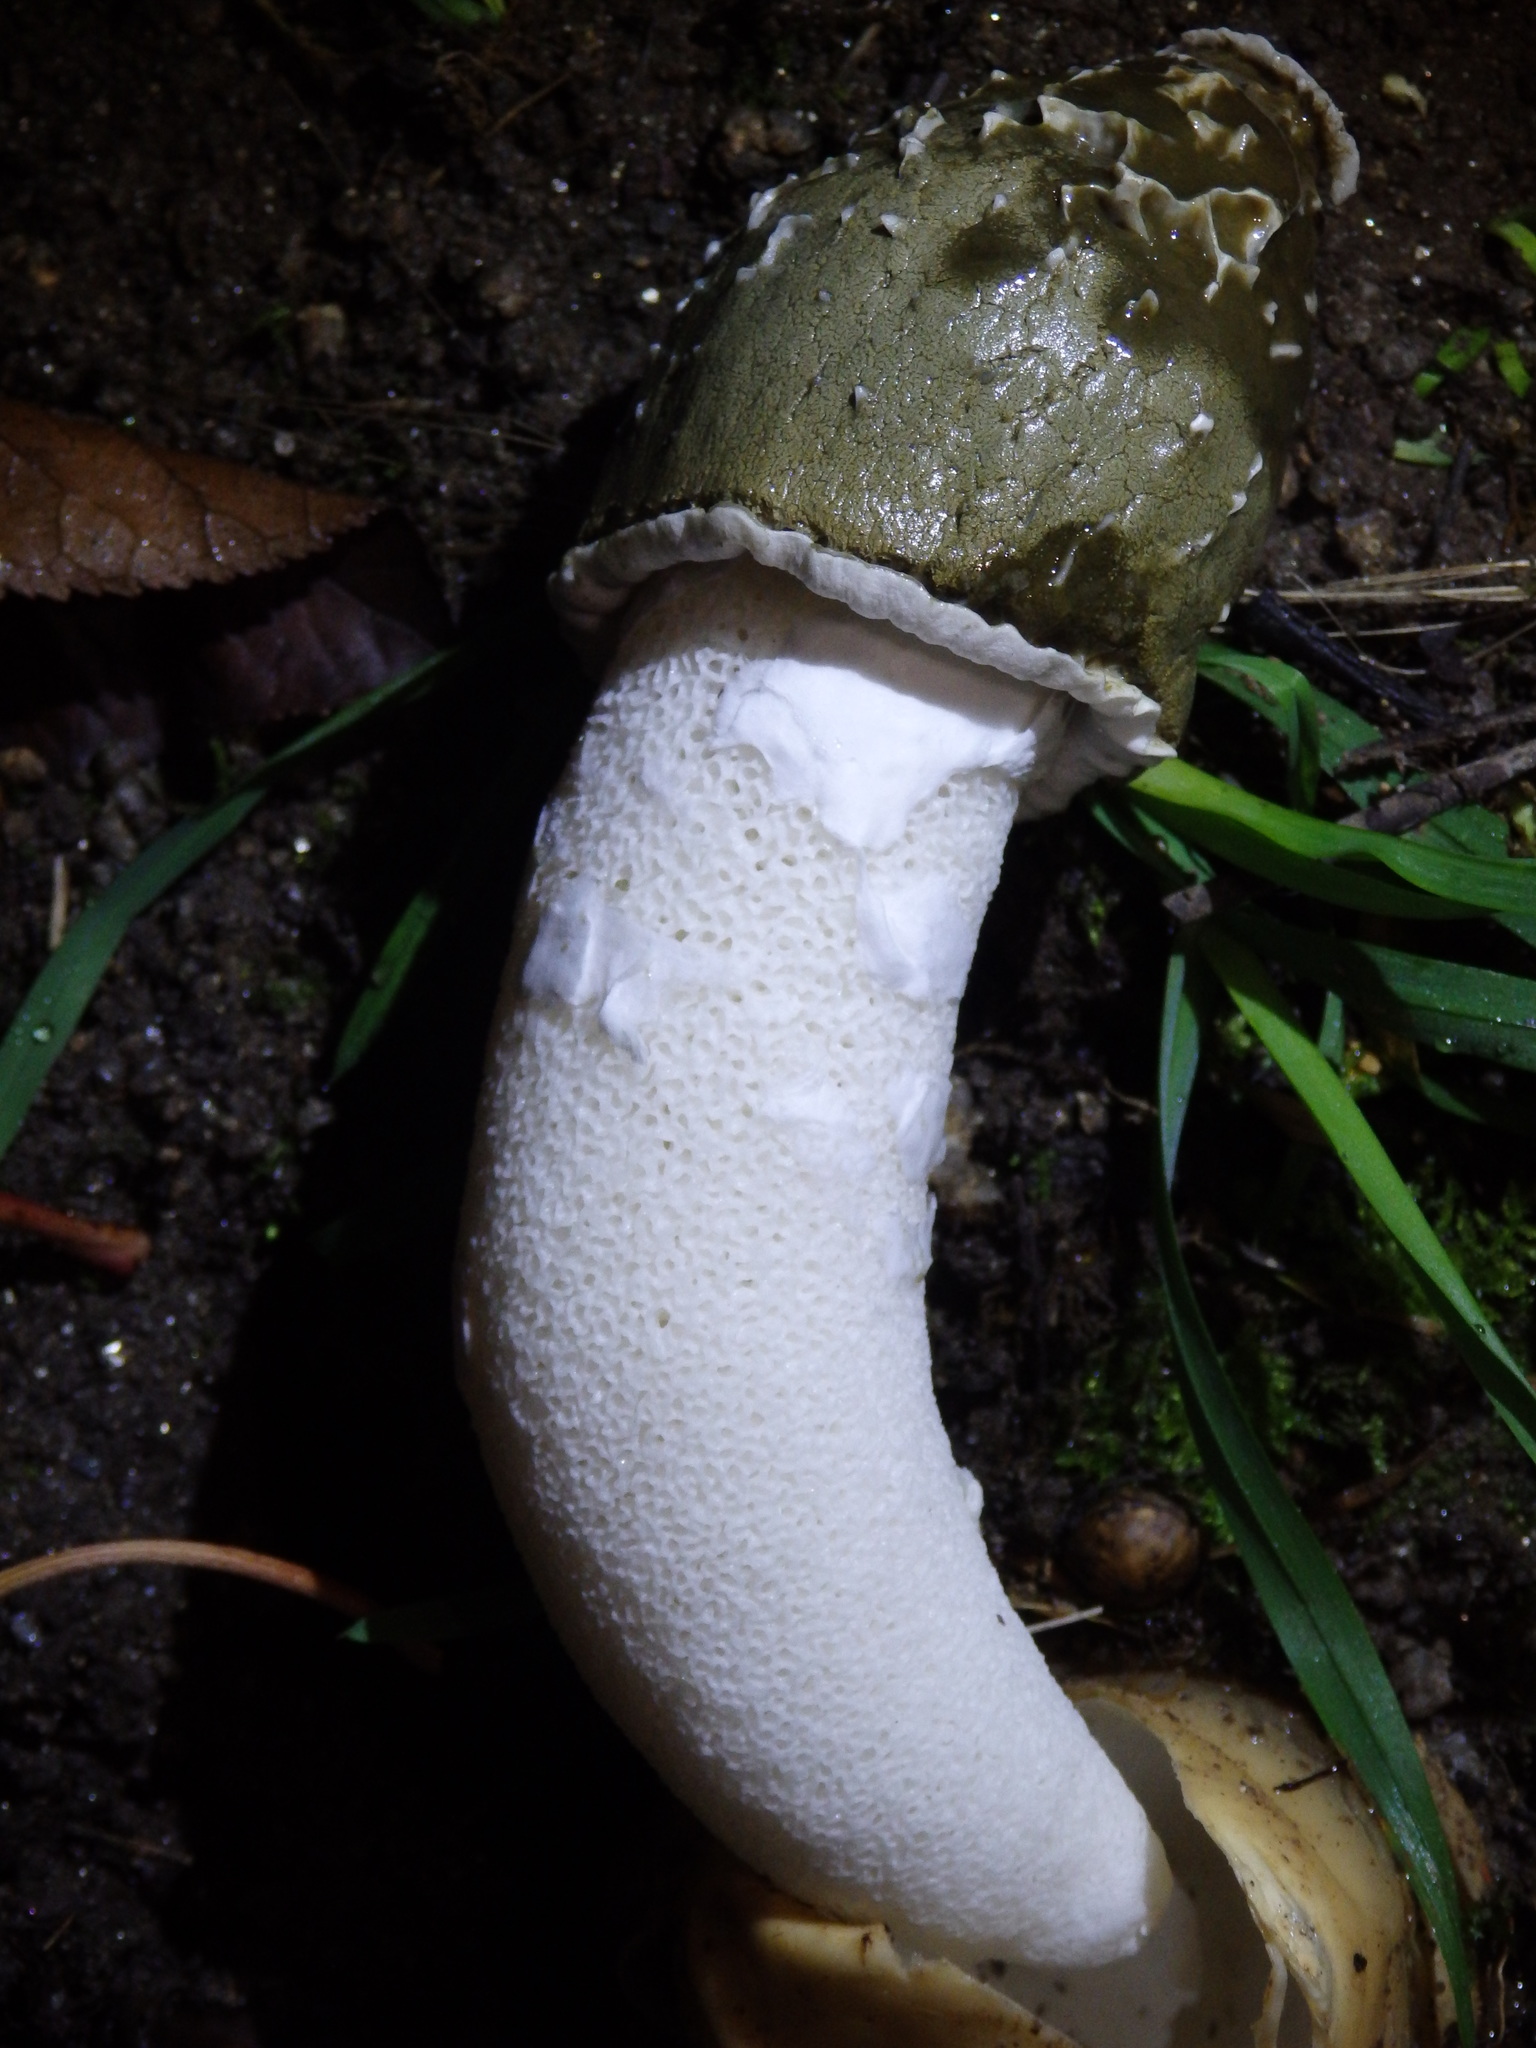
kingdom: Fungi
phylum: Basidiomycota
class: Agaricomycetes
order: Phallales
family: Phallaceae
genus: Phallus
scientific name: Phallus impudicus
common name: Common stinkhorn
